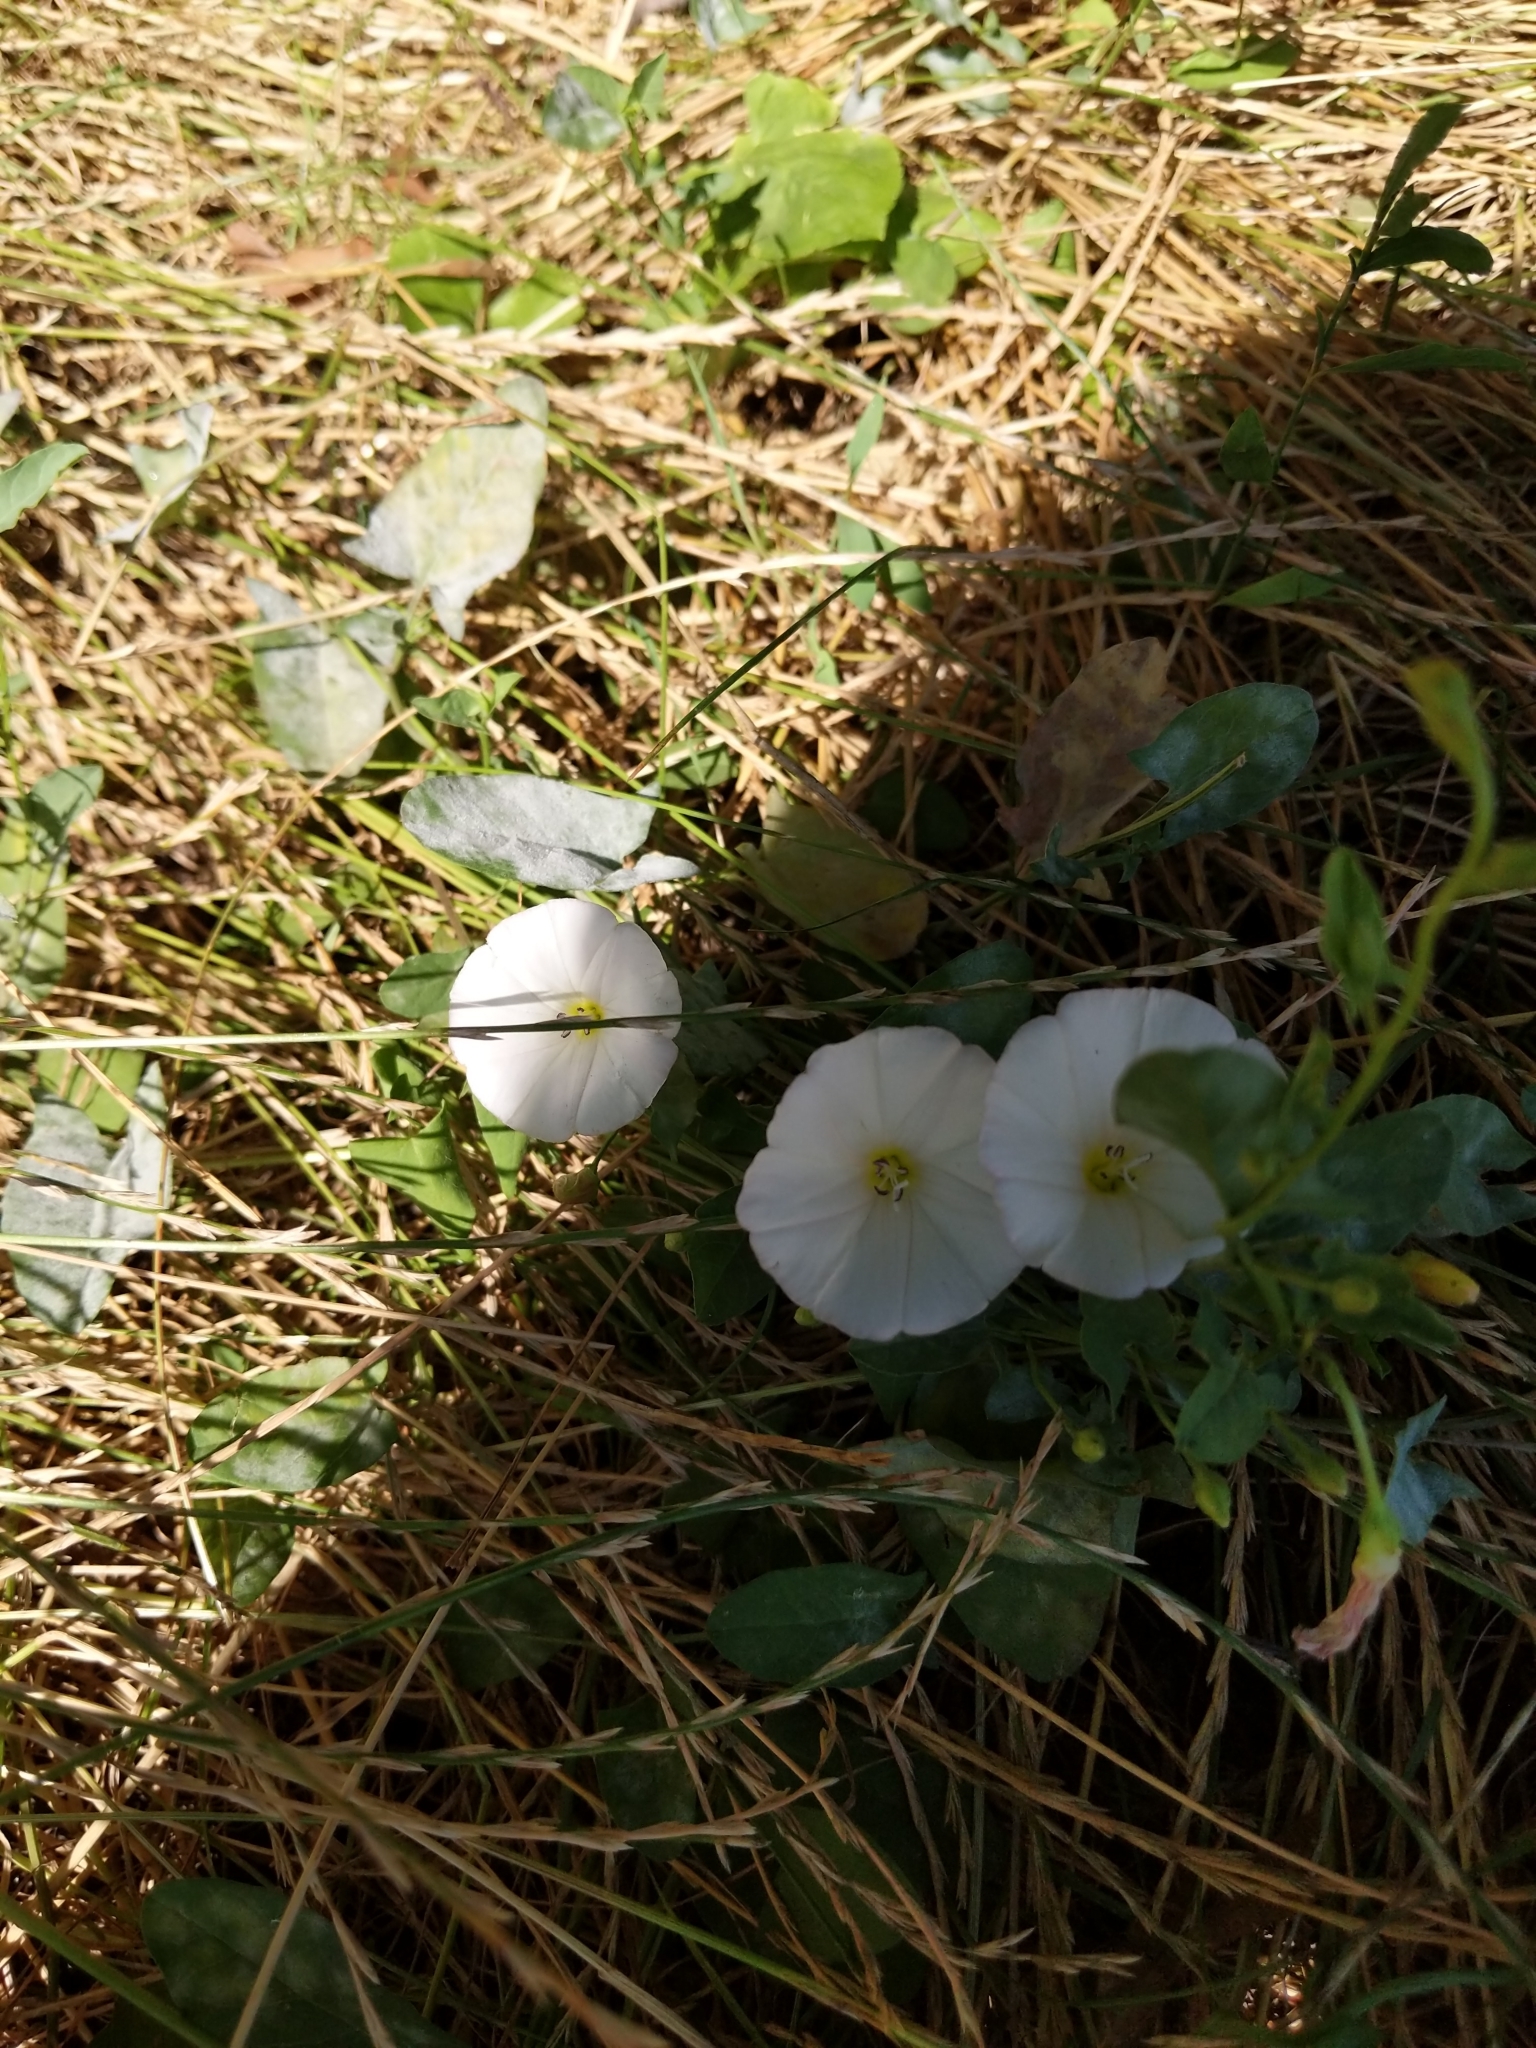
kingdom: Plantae
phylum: Tracheophyta
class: Magnoliopsida
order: Solanales
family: Convolvulaceae
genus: Convolvulus
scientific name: Convolvulus arvensis
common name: Field bindweed
